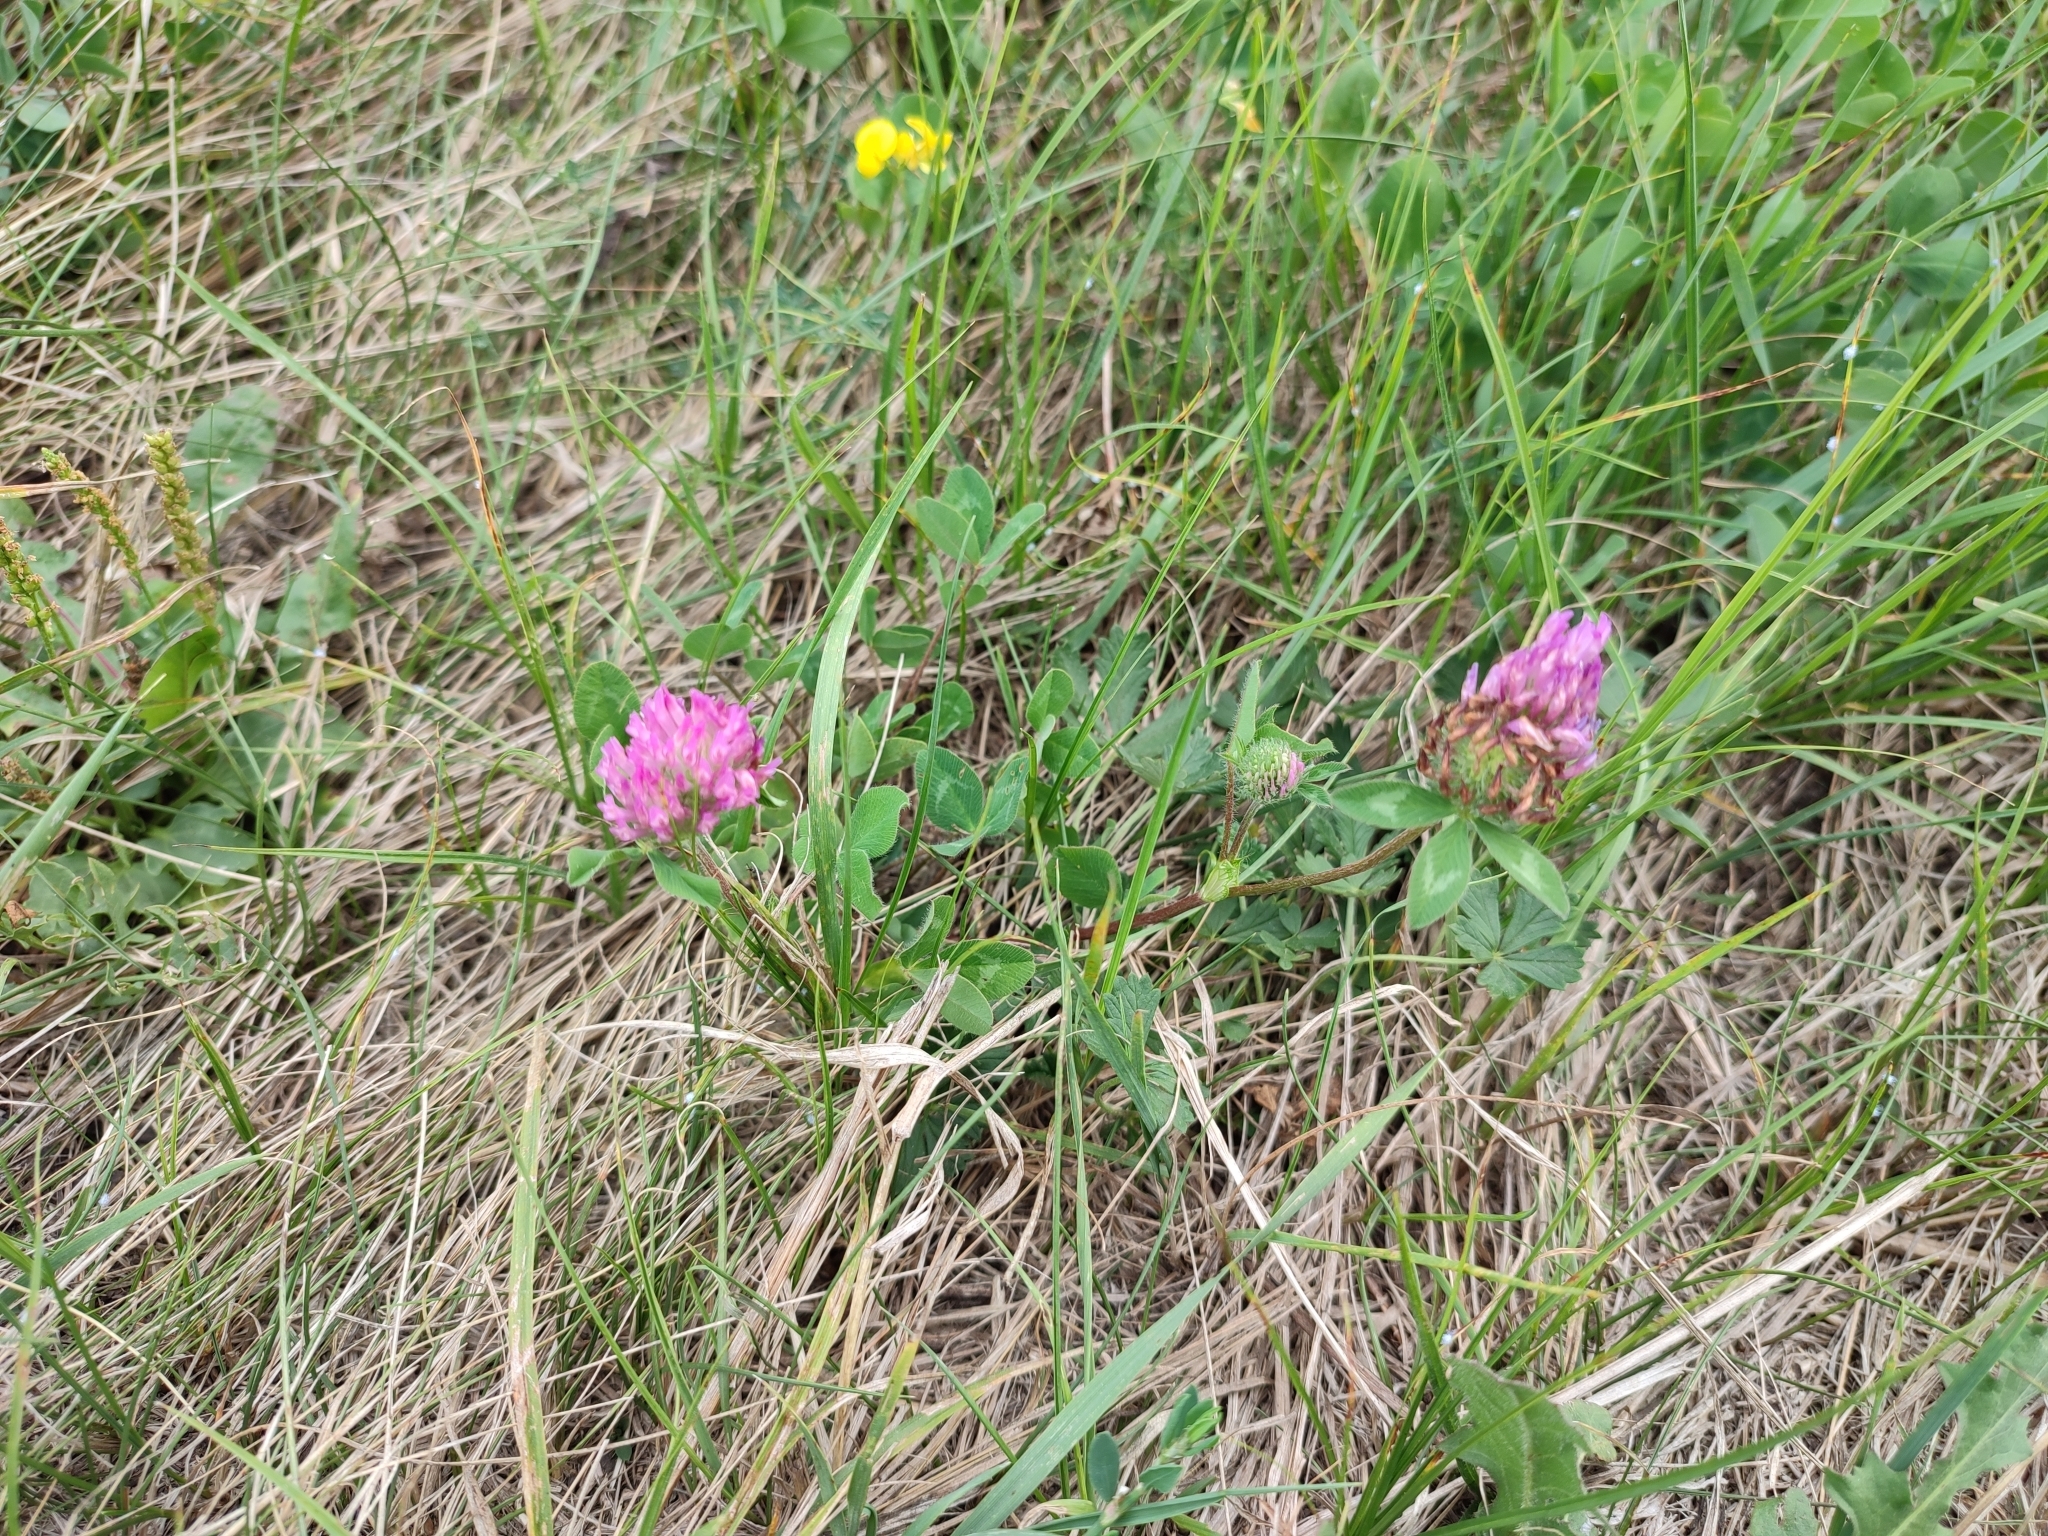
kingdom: Plantae
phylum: Tracheophyta
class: Magnoliopsida
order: Fabales
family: Fabaceae
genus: Trifolium
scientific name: Trifolium pratense
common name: Red clover
